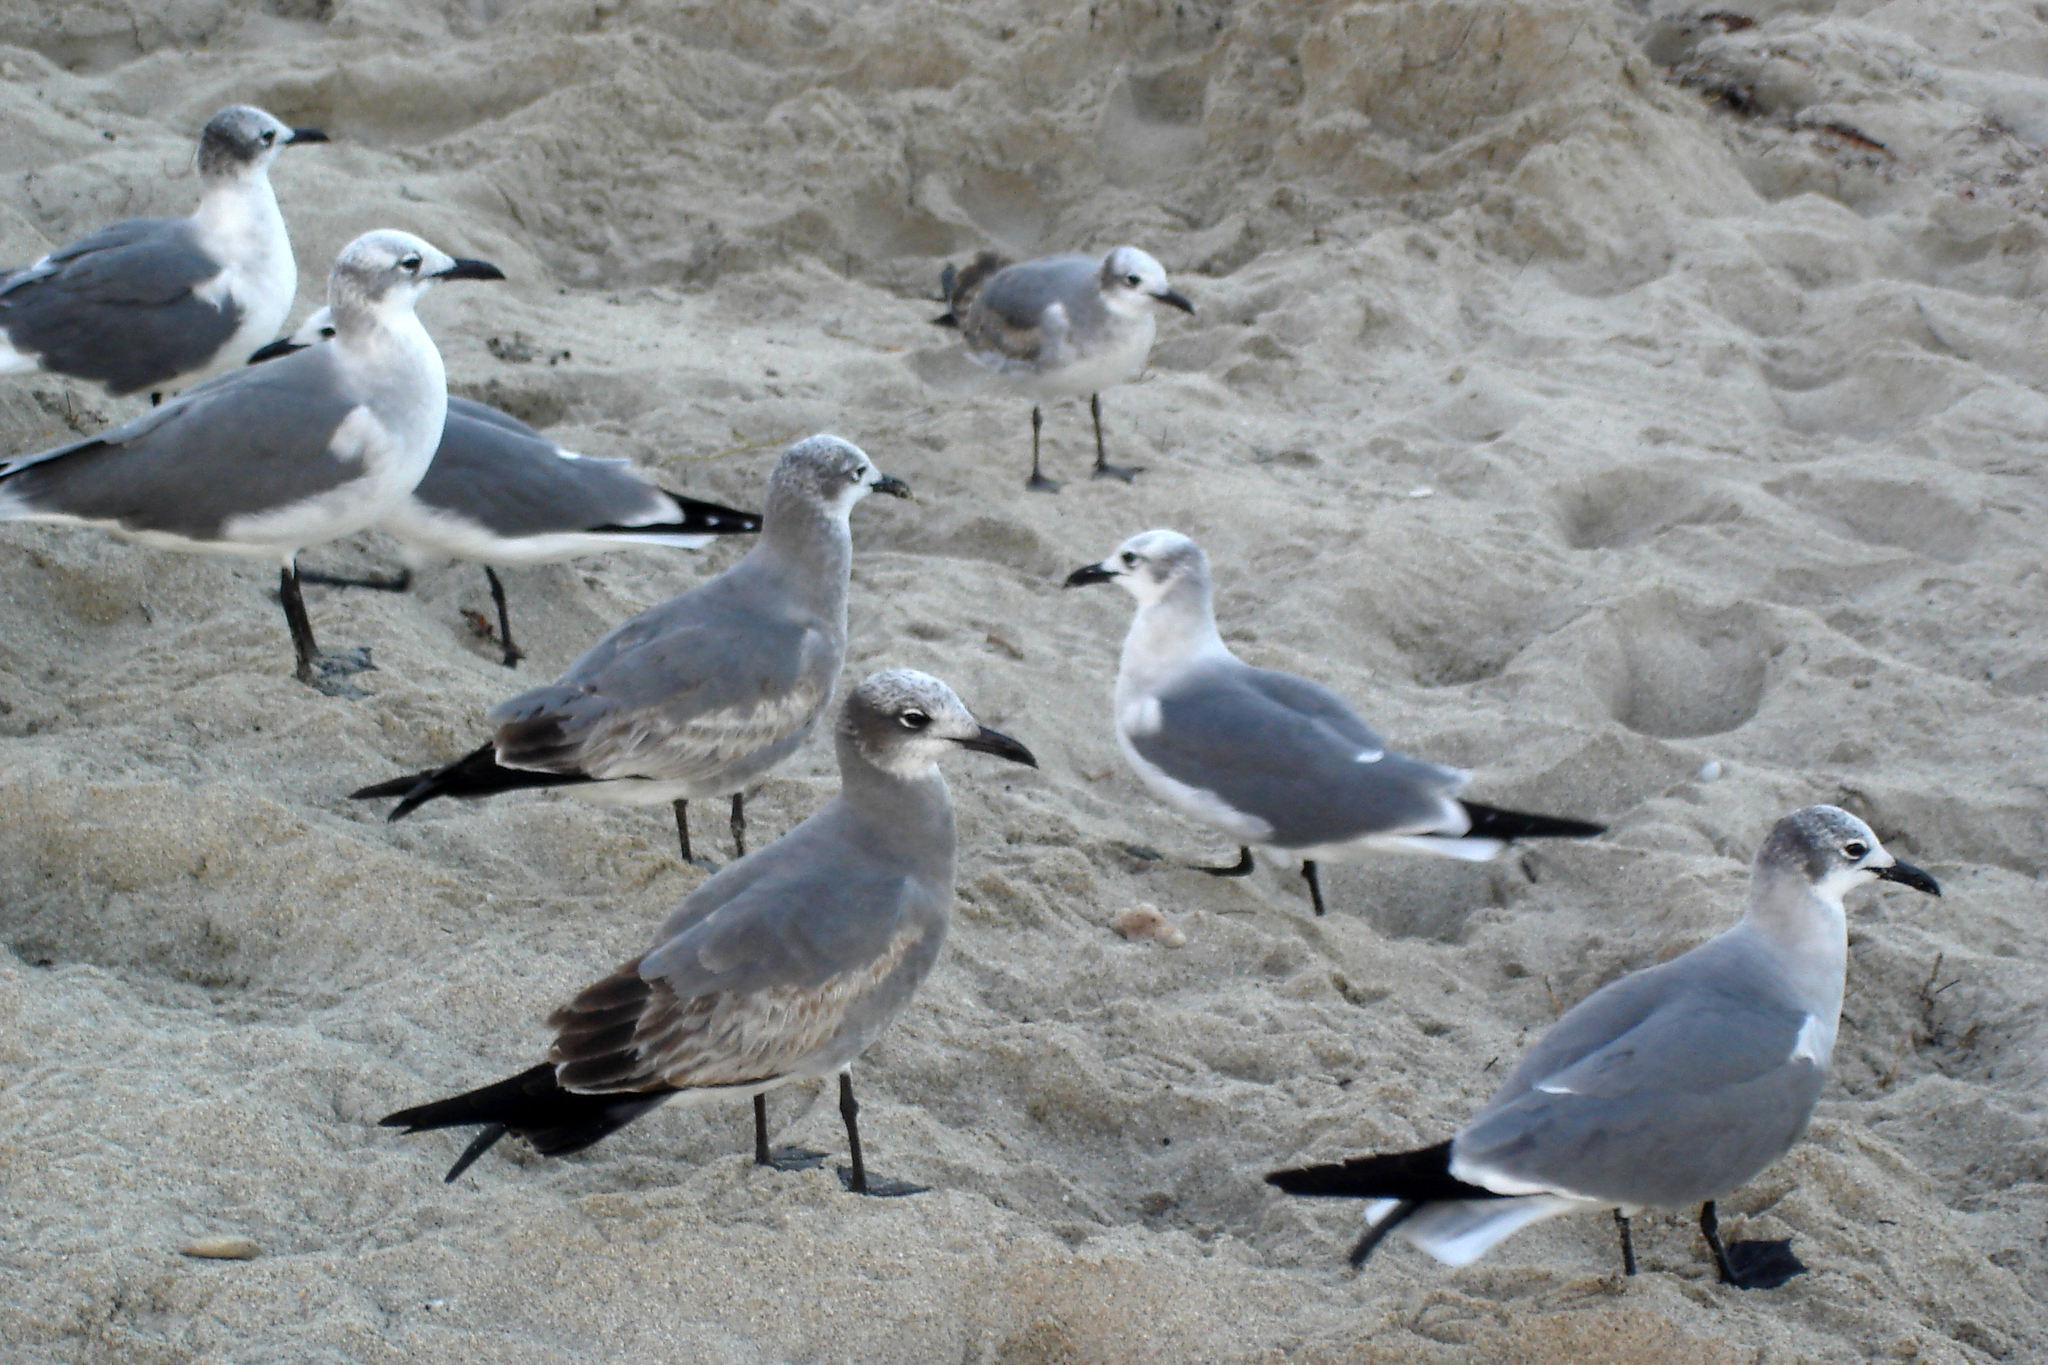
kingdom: Animalia
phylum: Chordata
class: Aves
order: Charadriiformes
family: Laridae
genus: Leucophaeus
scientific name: Leucophaeus atricilla
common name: Laughing gull
